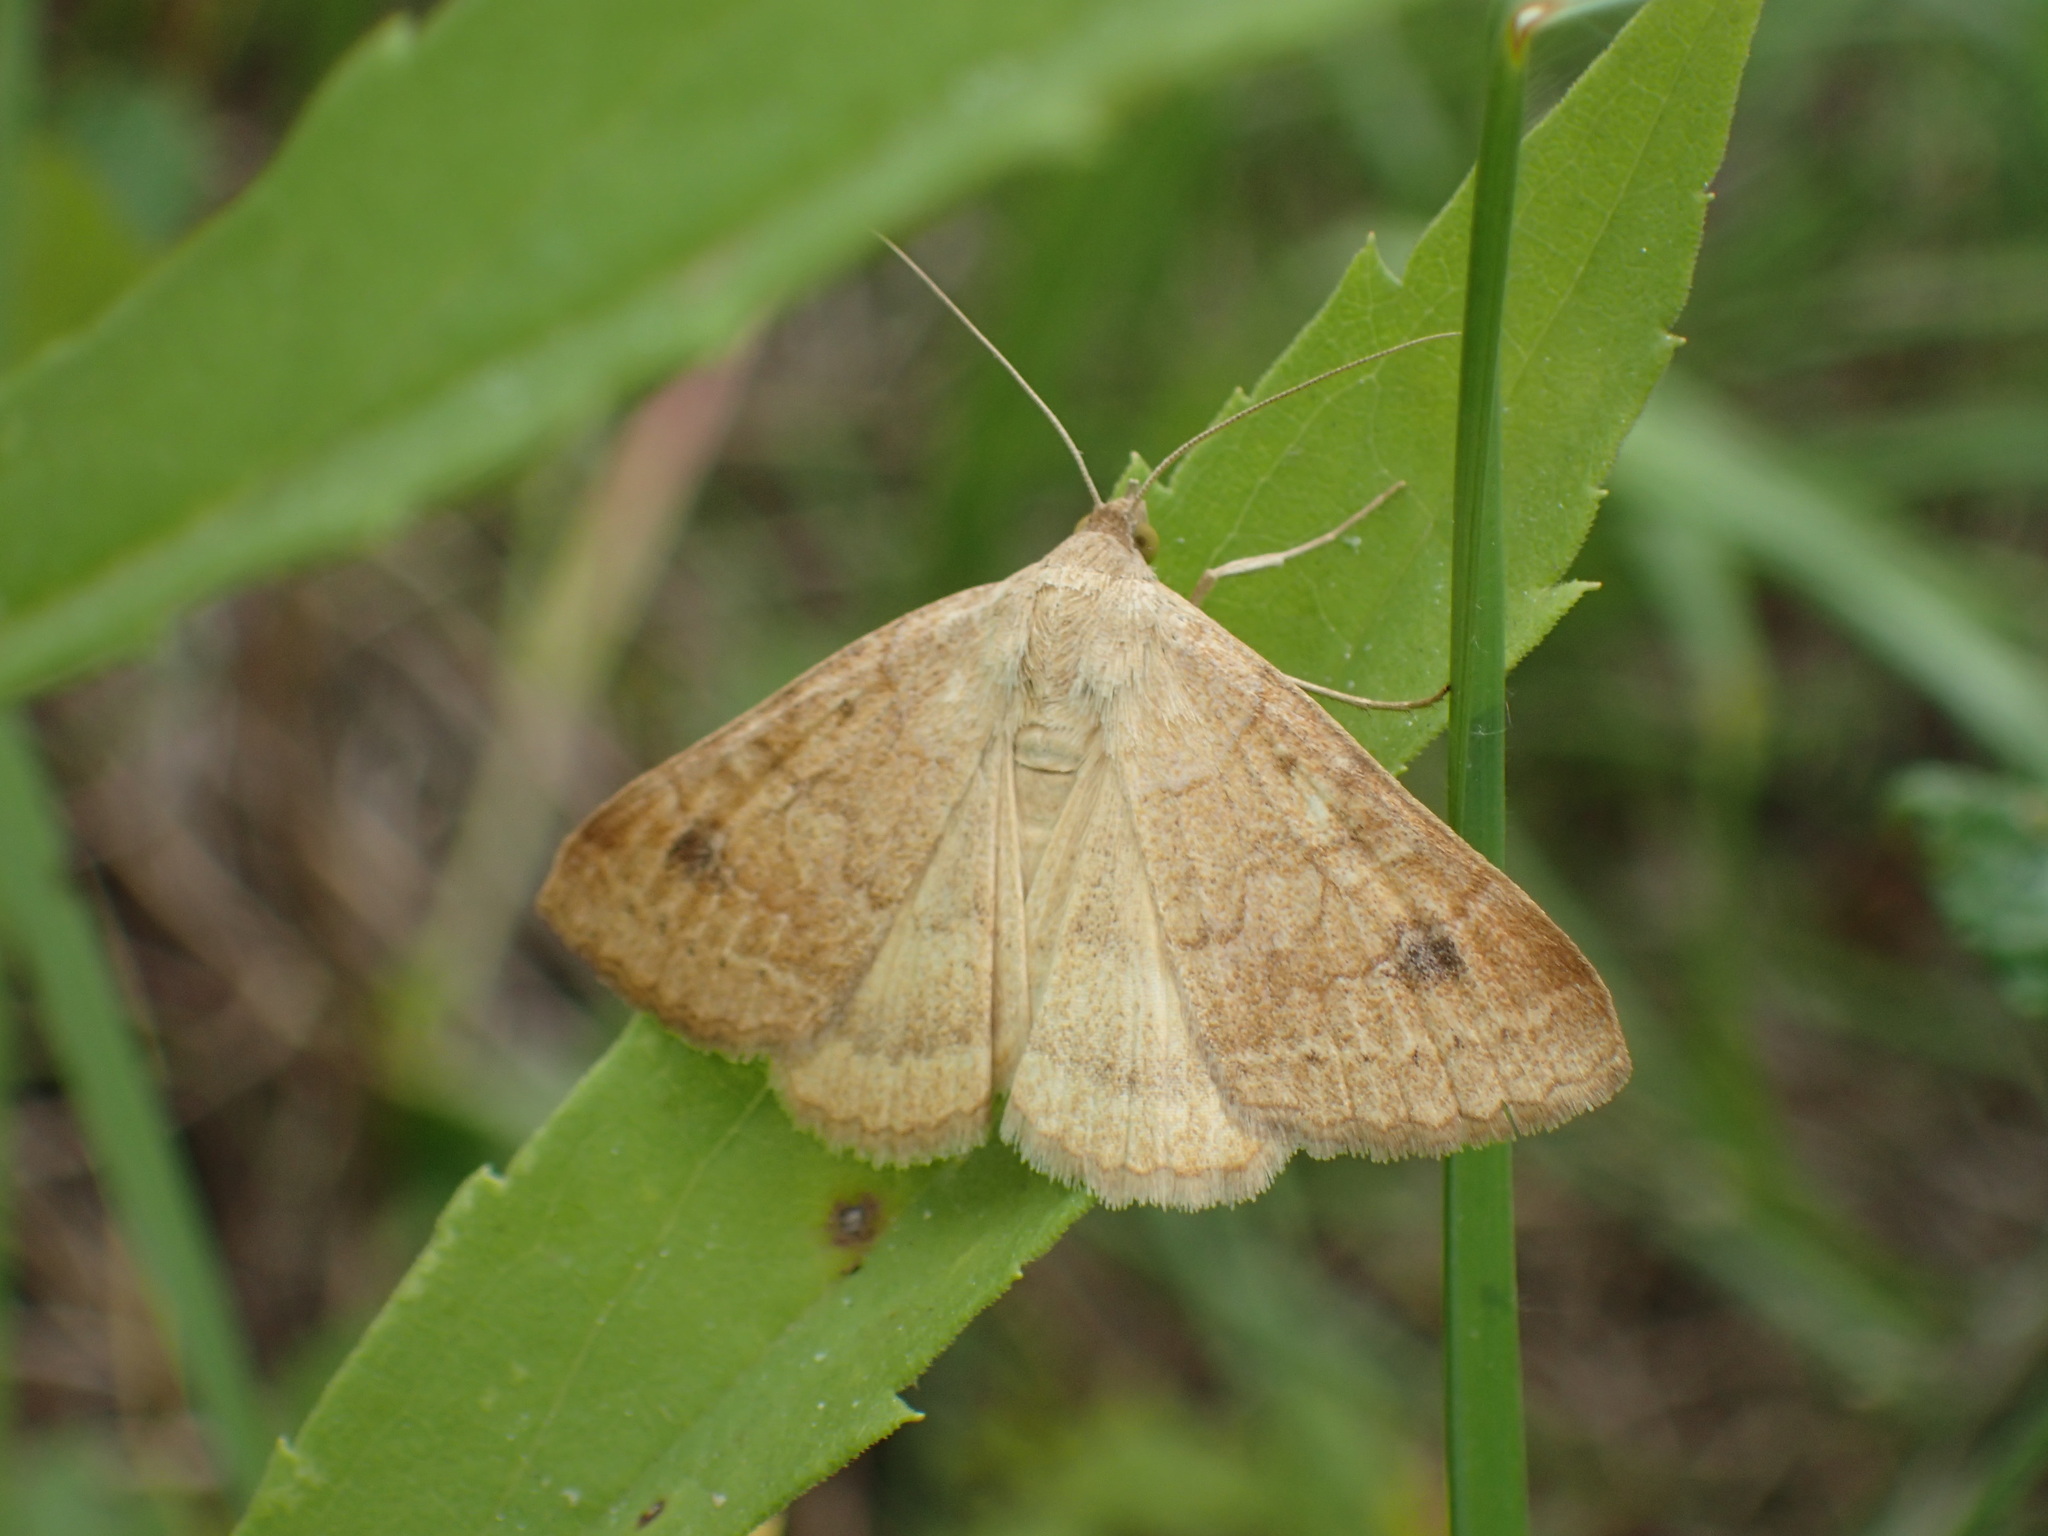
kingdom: Animalia
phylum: Arthropoda
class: Insecta
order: Lepidoptera
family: Erebidae
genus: Caenurgia
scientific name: Caenurgia chloropha
